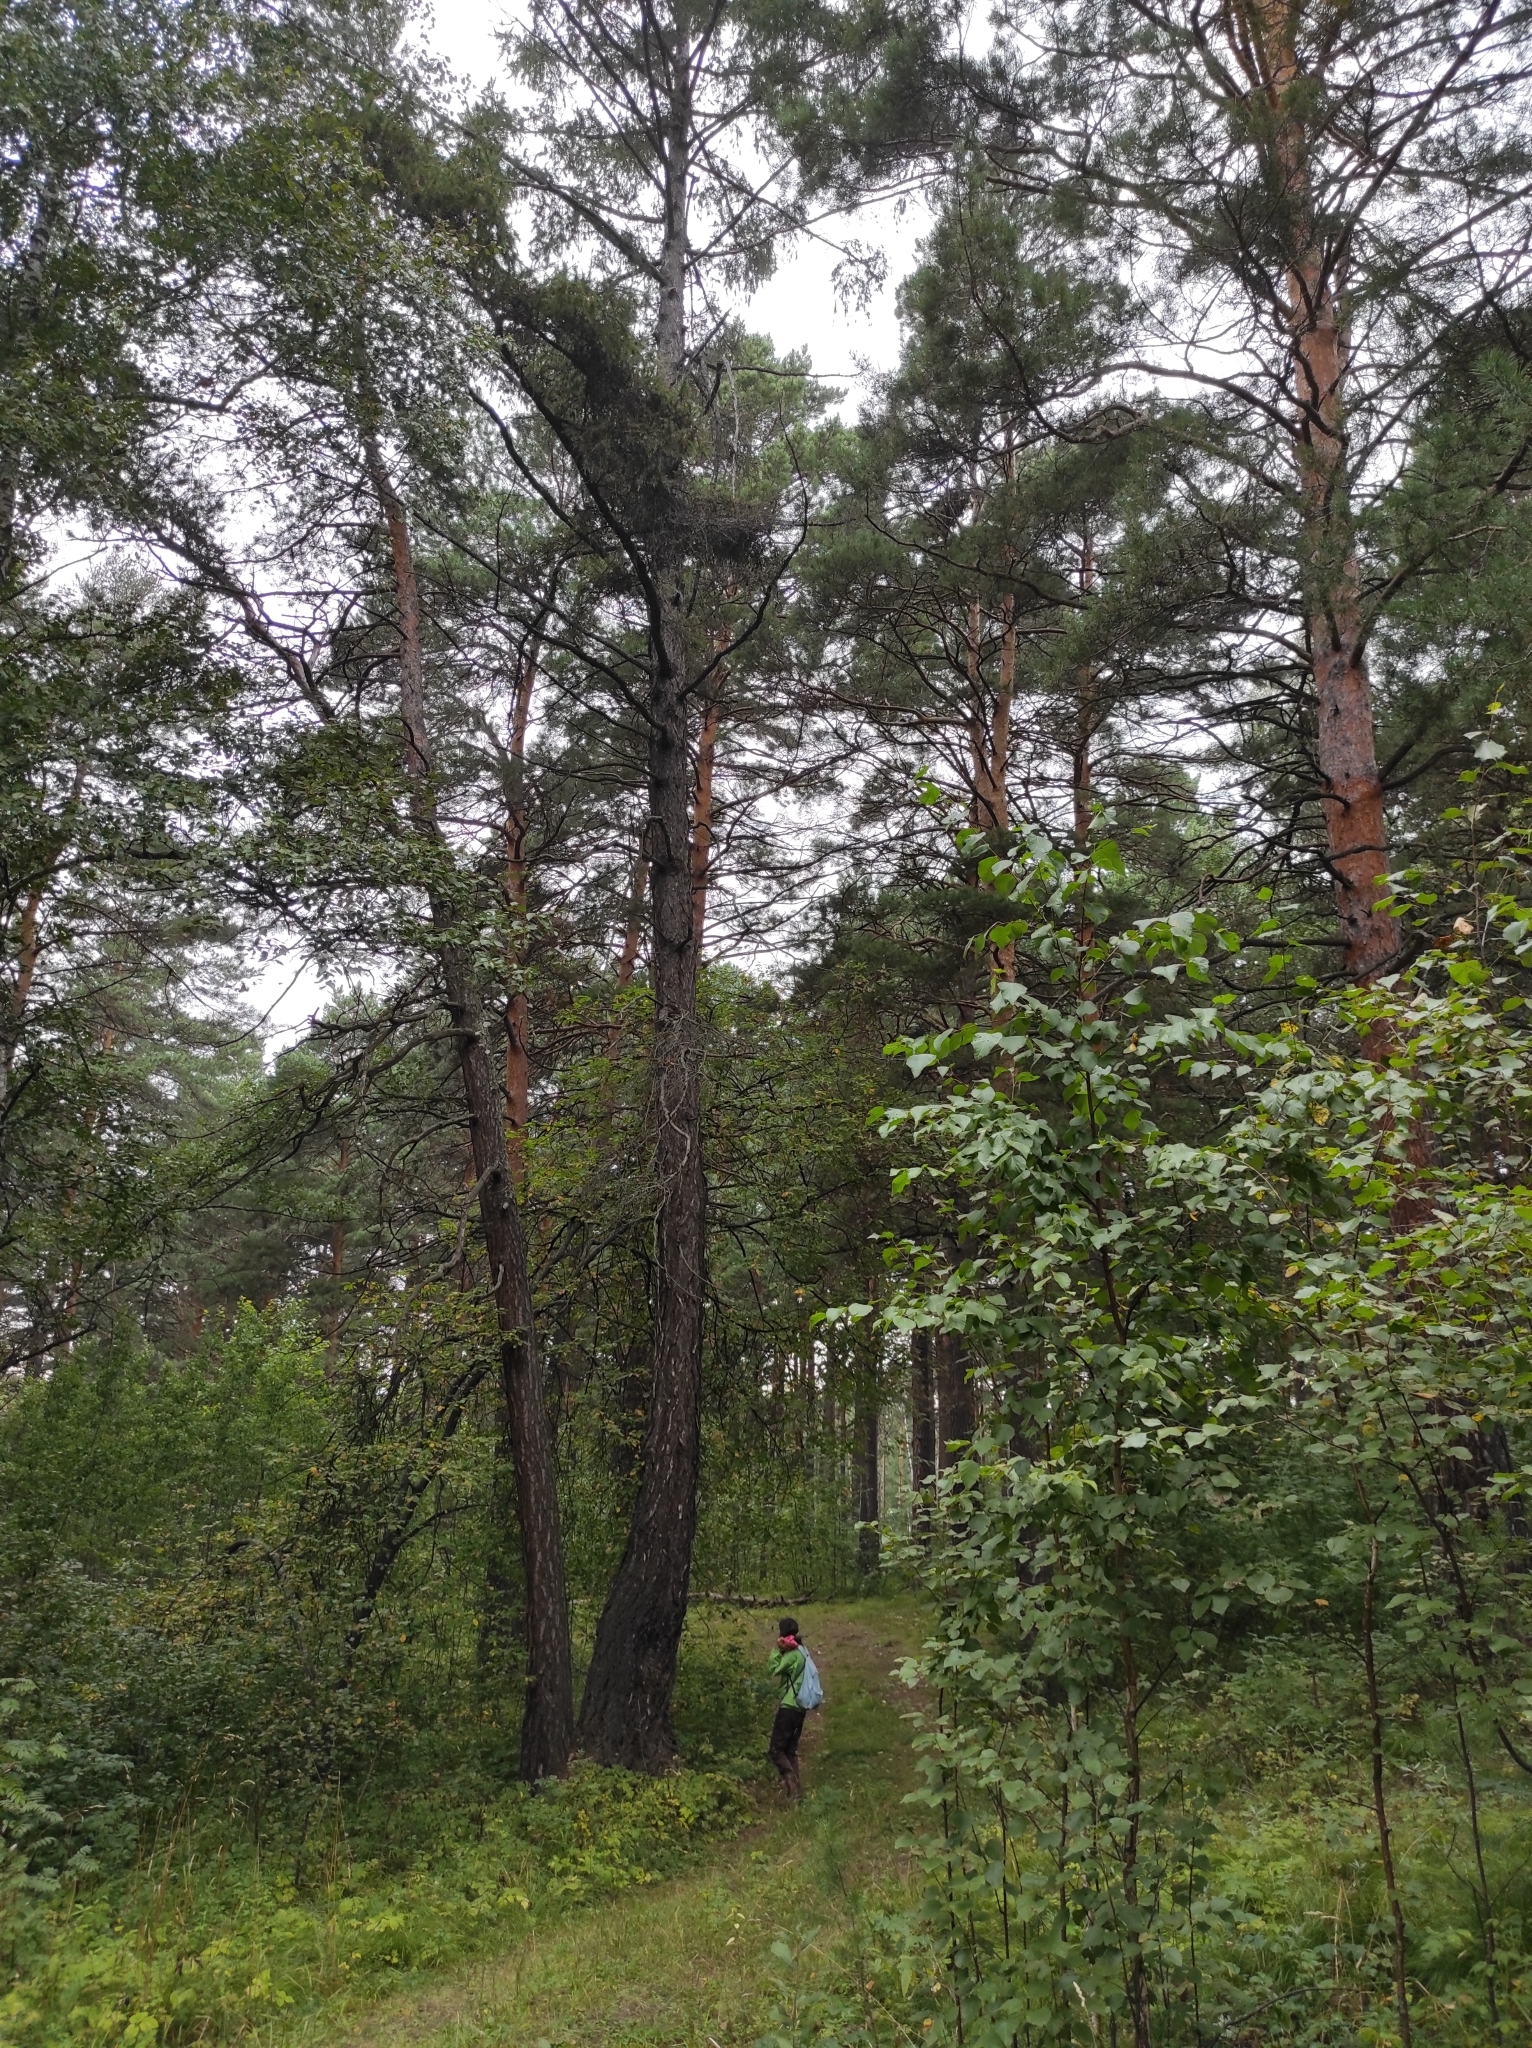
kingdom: Plantae
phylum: Tracheophyta
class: Pinopsida
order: Pinales
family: Pinaceae
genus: Larix
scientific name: Larix sibirica
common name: Siberian larch
